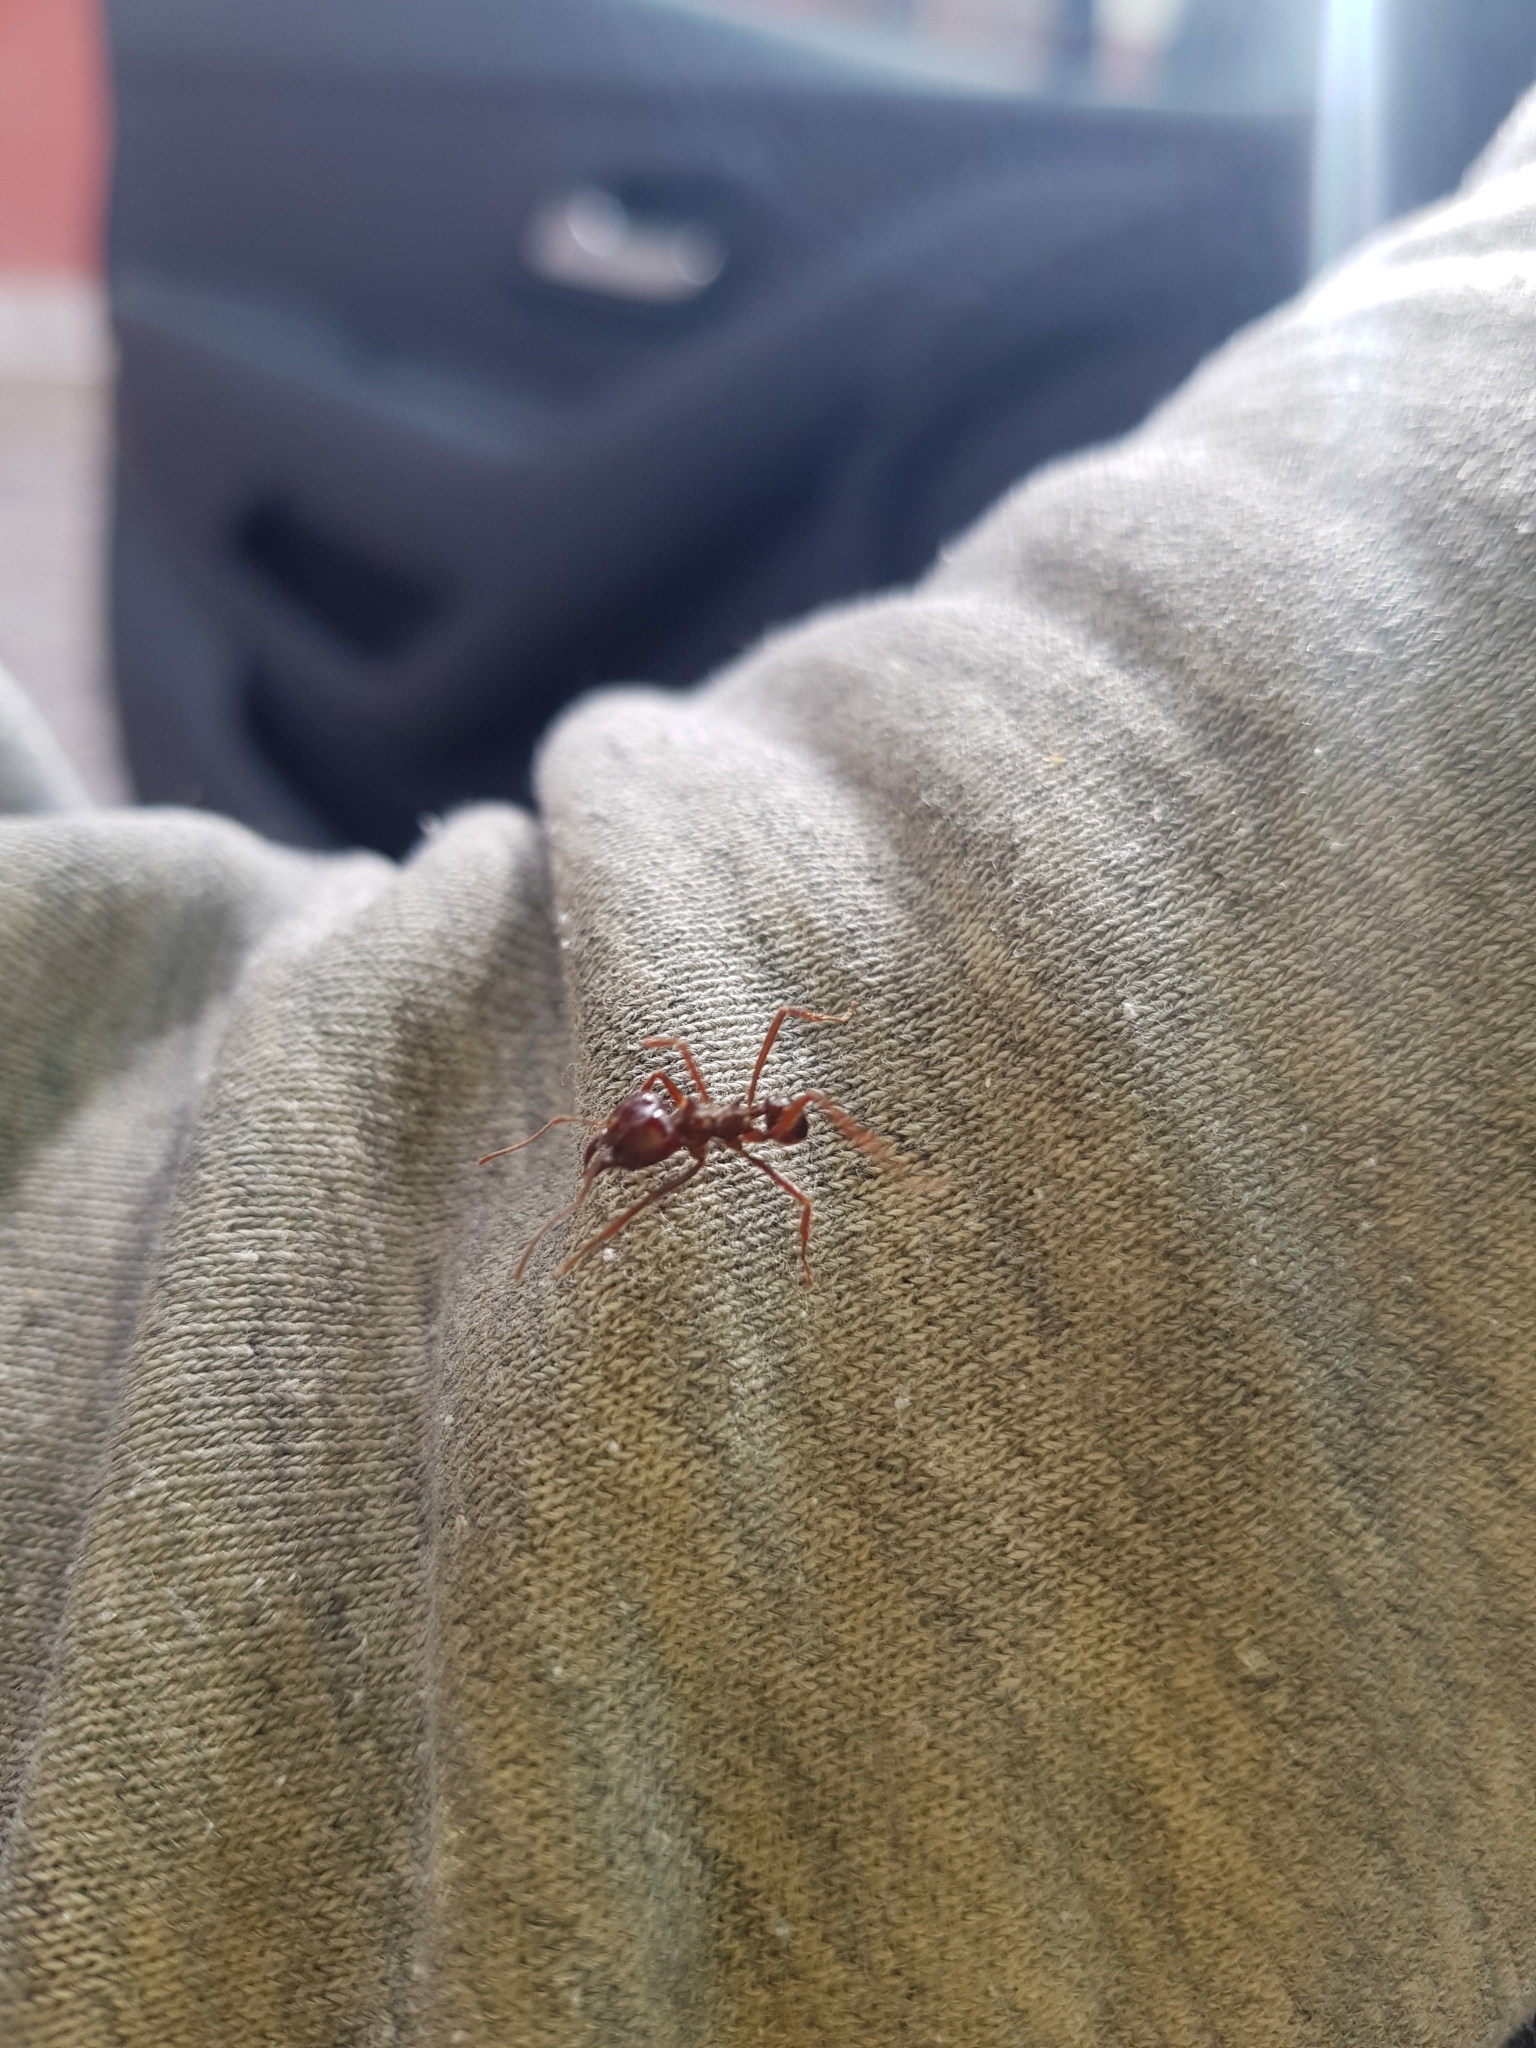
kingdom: Animalia
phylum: Arthropoda
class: Insecta
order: Hymenoptera
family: Formicidae
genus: Atta
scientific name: Atta mexicana
